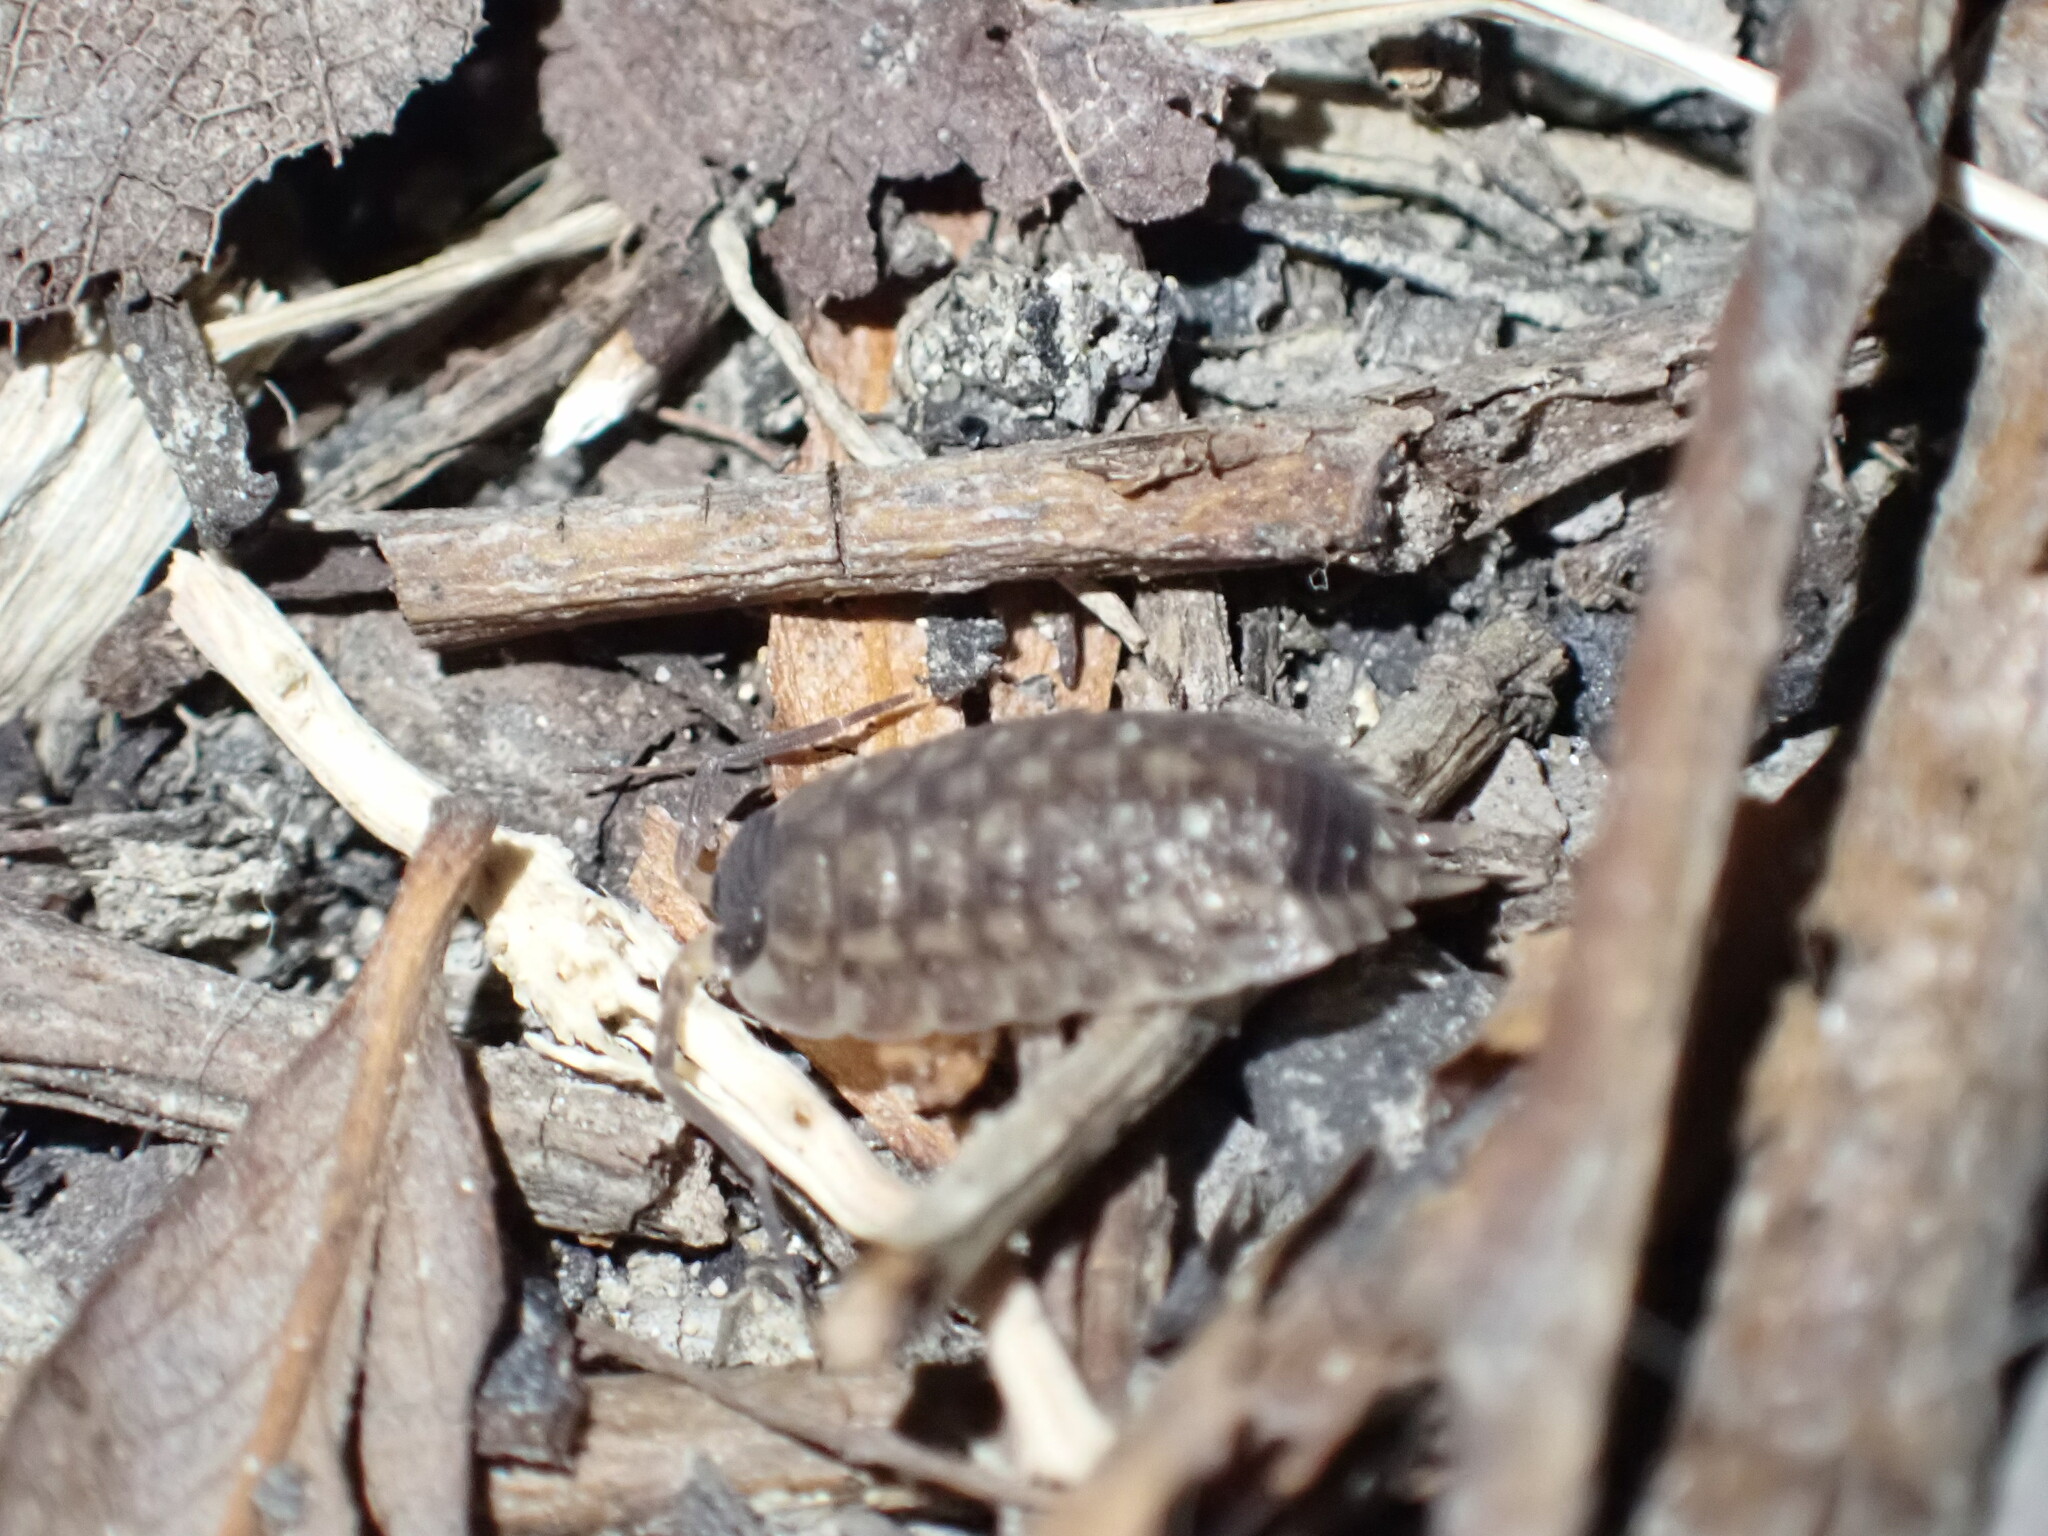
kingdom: Animalia
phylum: Arthropoda
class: Malacostraca
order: Isopoda
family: Porcellionidae
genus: Porcellio
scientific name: Porcellio spinicornis
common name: Painted woodlouse
